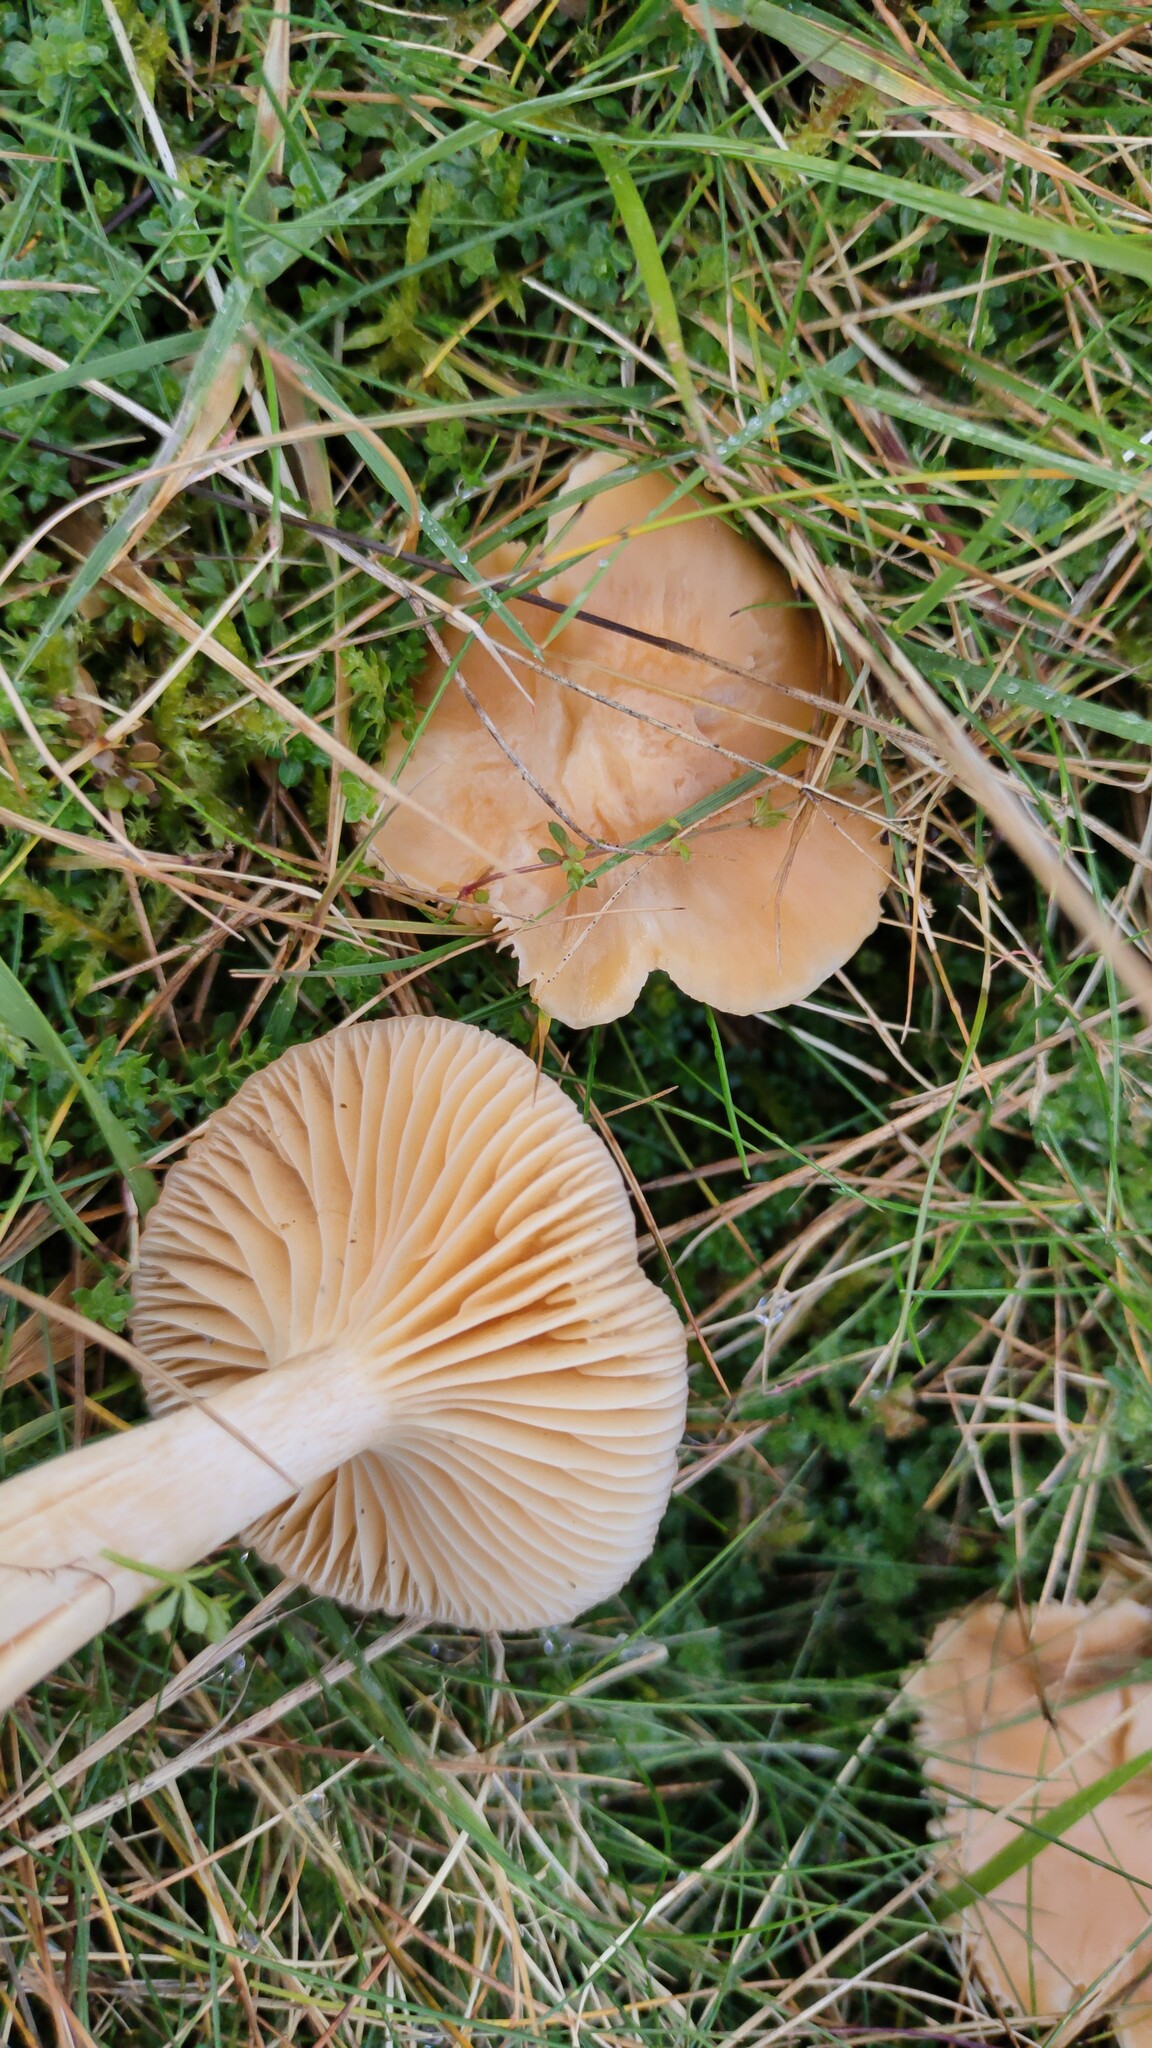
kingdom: Fungi
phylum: Basidiomycota
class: Agaricomycetes
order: Agaricales
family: Hygrophoraceae
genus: Cuphophyllus
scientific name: Cuphophyllus pratensis
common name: Meadow waxcap
